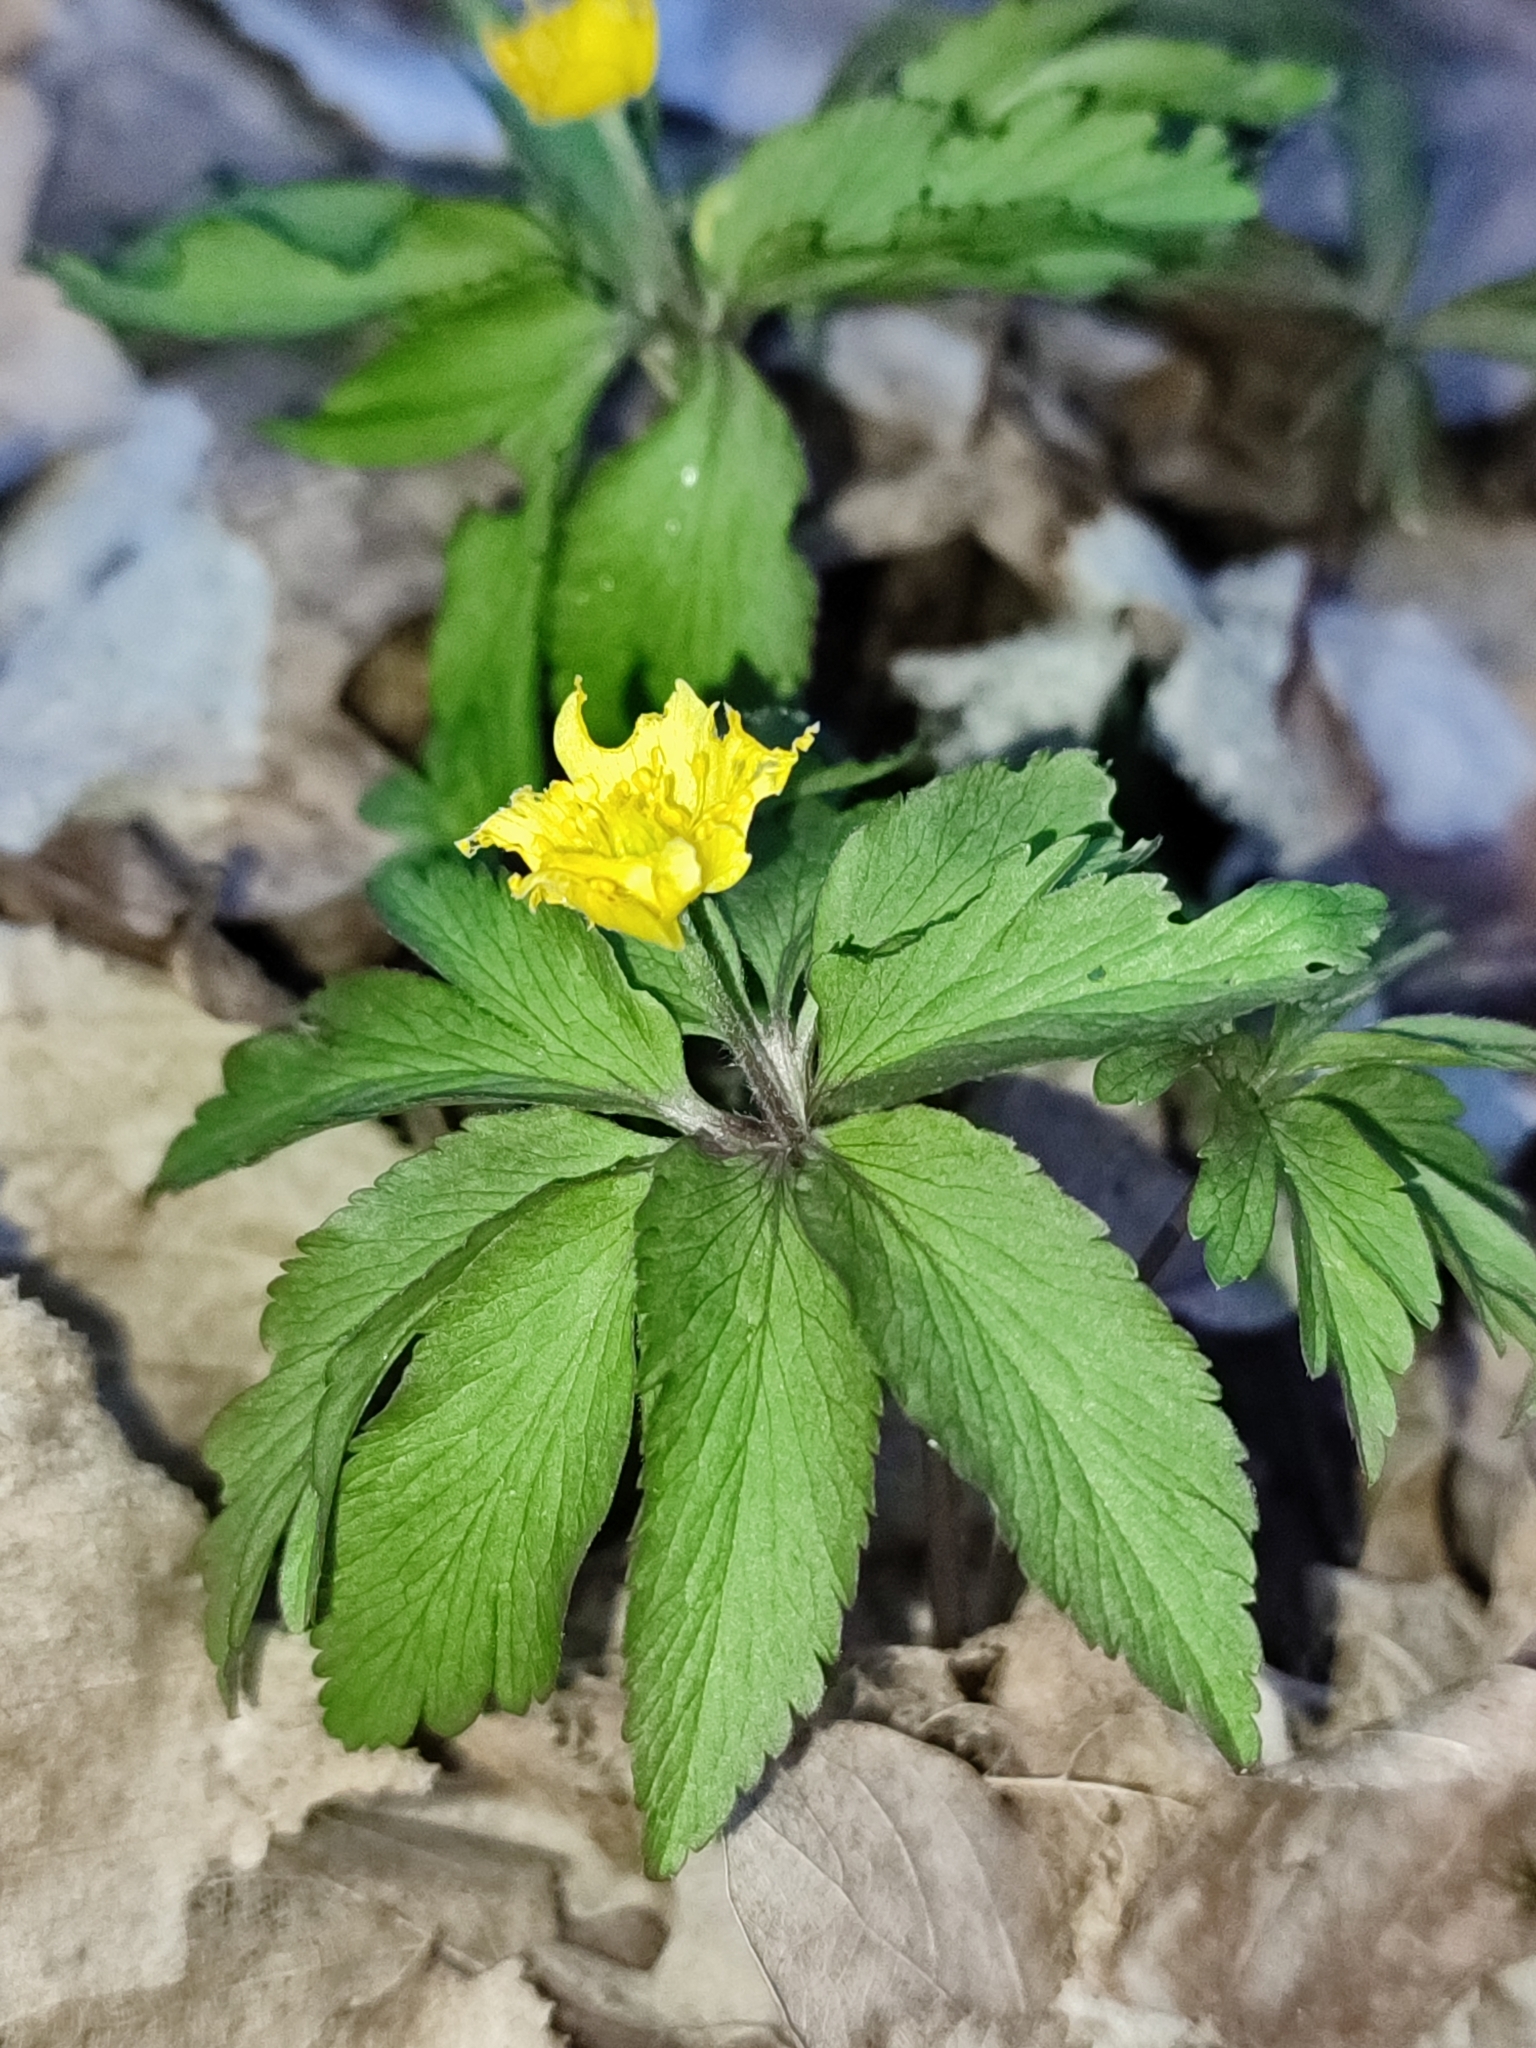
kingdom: Plantae
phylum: Tracheophyta
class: Magnoliopsida
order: Ranunculales
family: Ranunculaceae
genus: Anemone
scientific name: Anemone ranunculoides
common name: Yellow anemone
